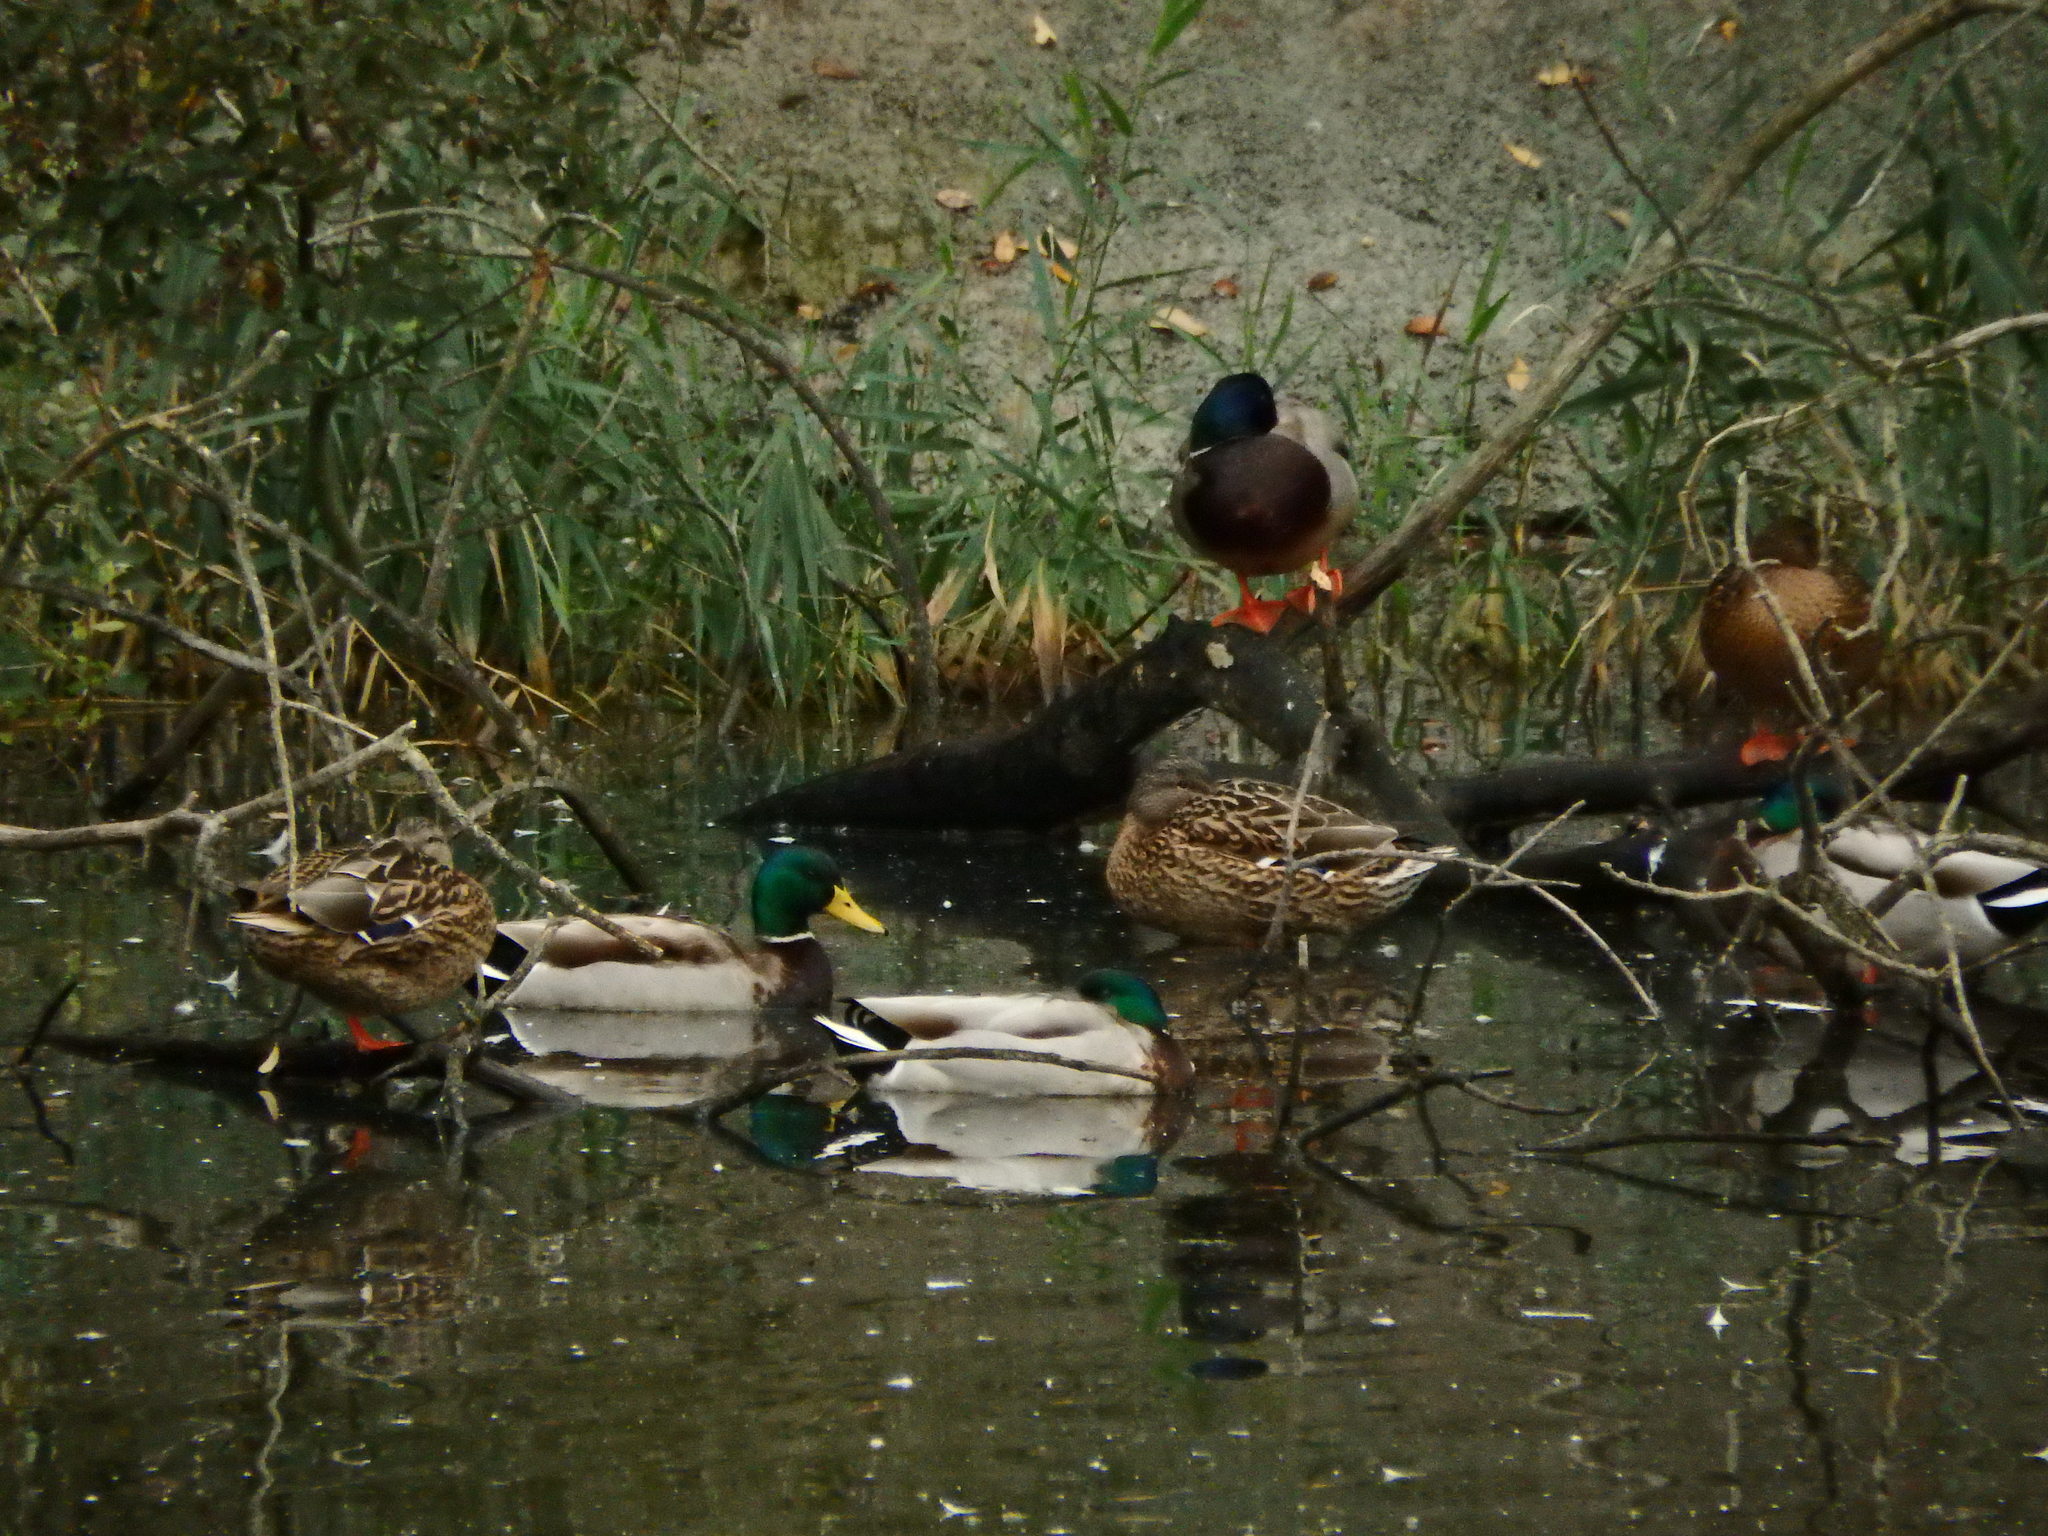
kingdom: Animalia
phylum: Chordata
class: Aves
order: Anseriformes
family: Anatidae
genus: Anas
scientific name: Anas platyrhynchos
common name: Mallard
